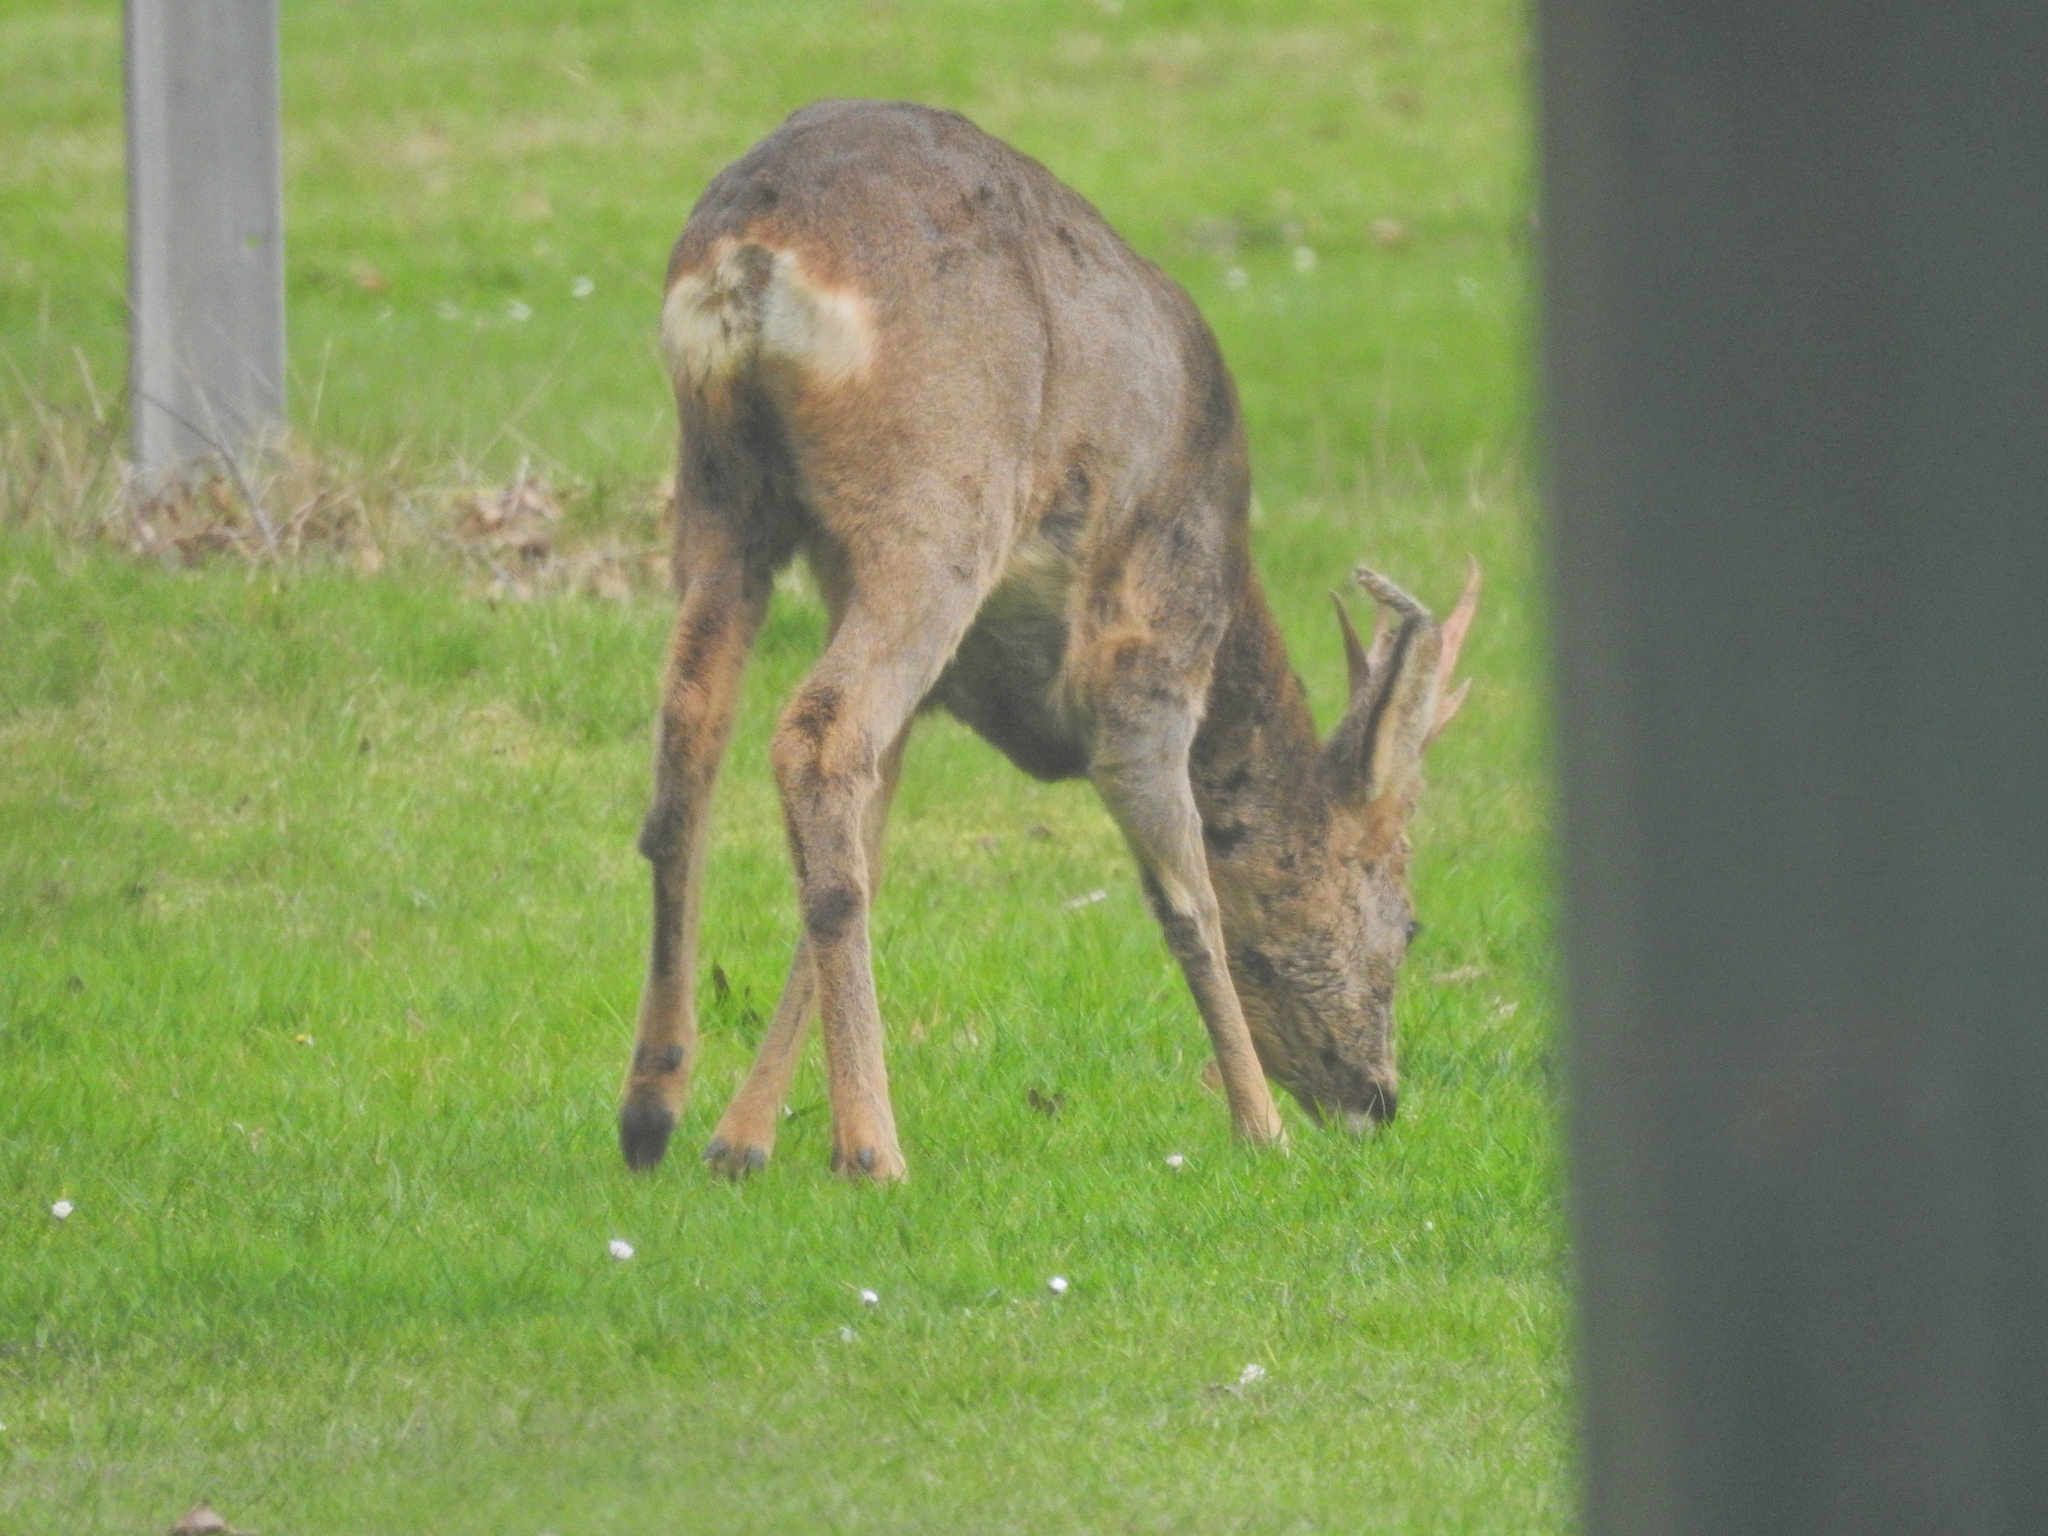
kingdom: Animalia
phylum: Chordata
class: Mammalia
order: Artiodactyla
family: Cervidae
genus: Capreolus
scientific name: Capreolus capreolus
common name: Western roe deer
